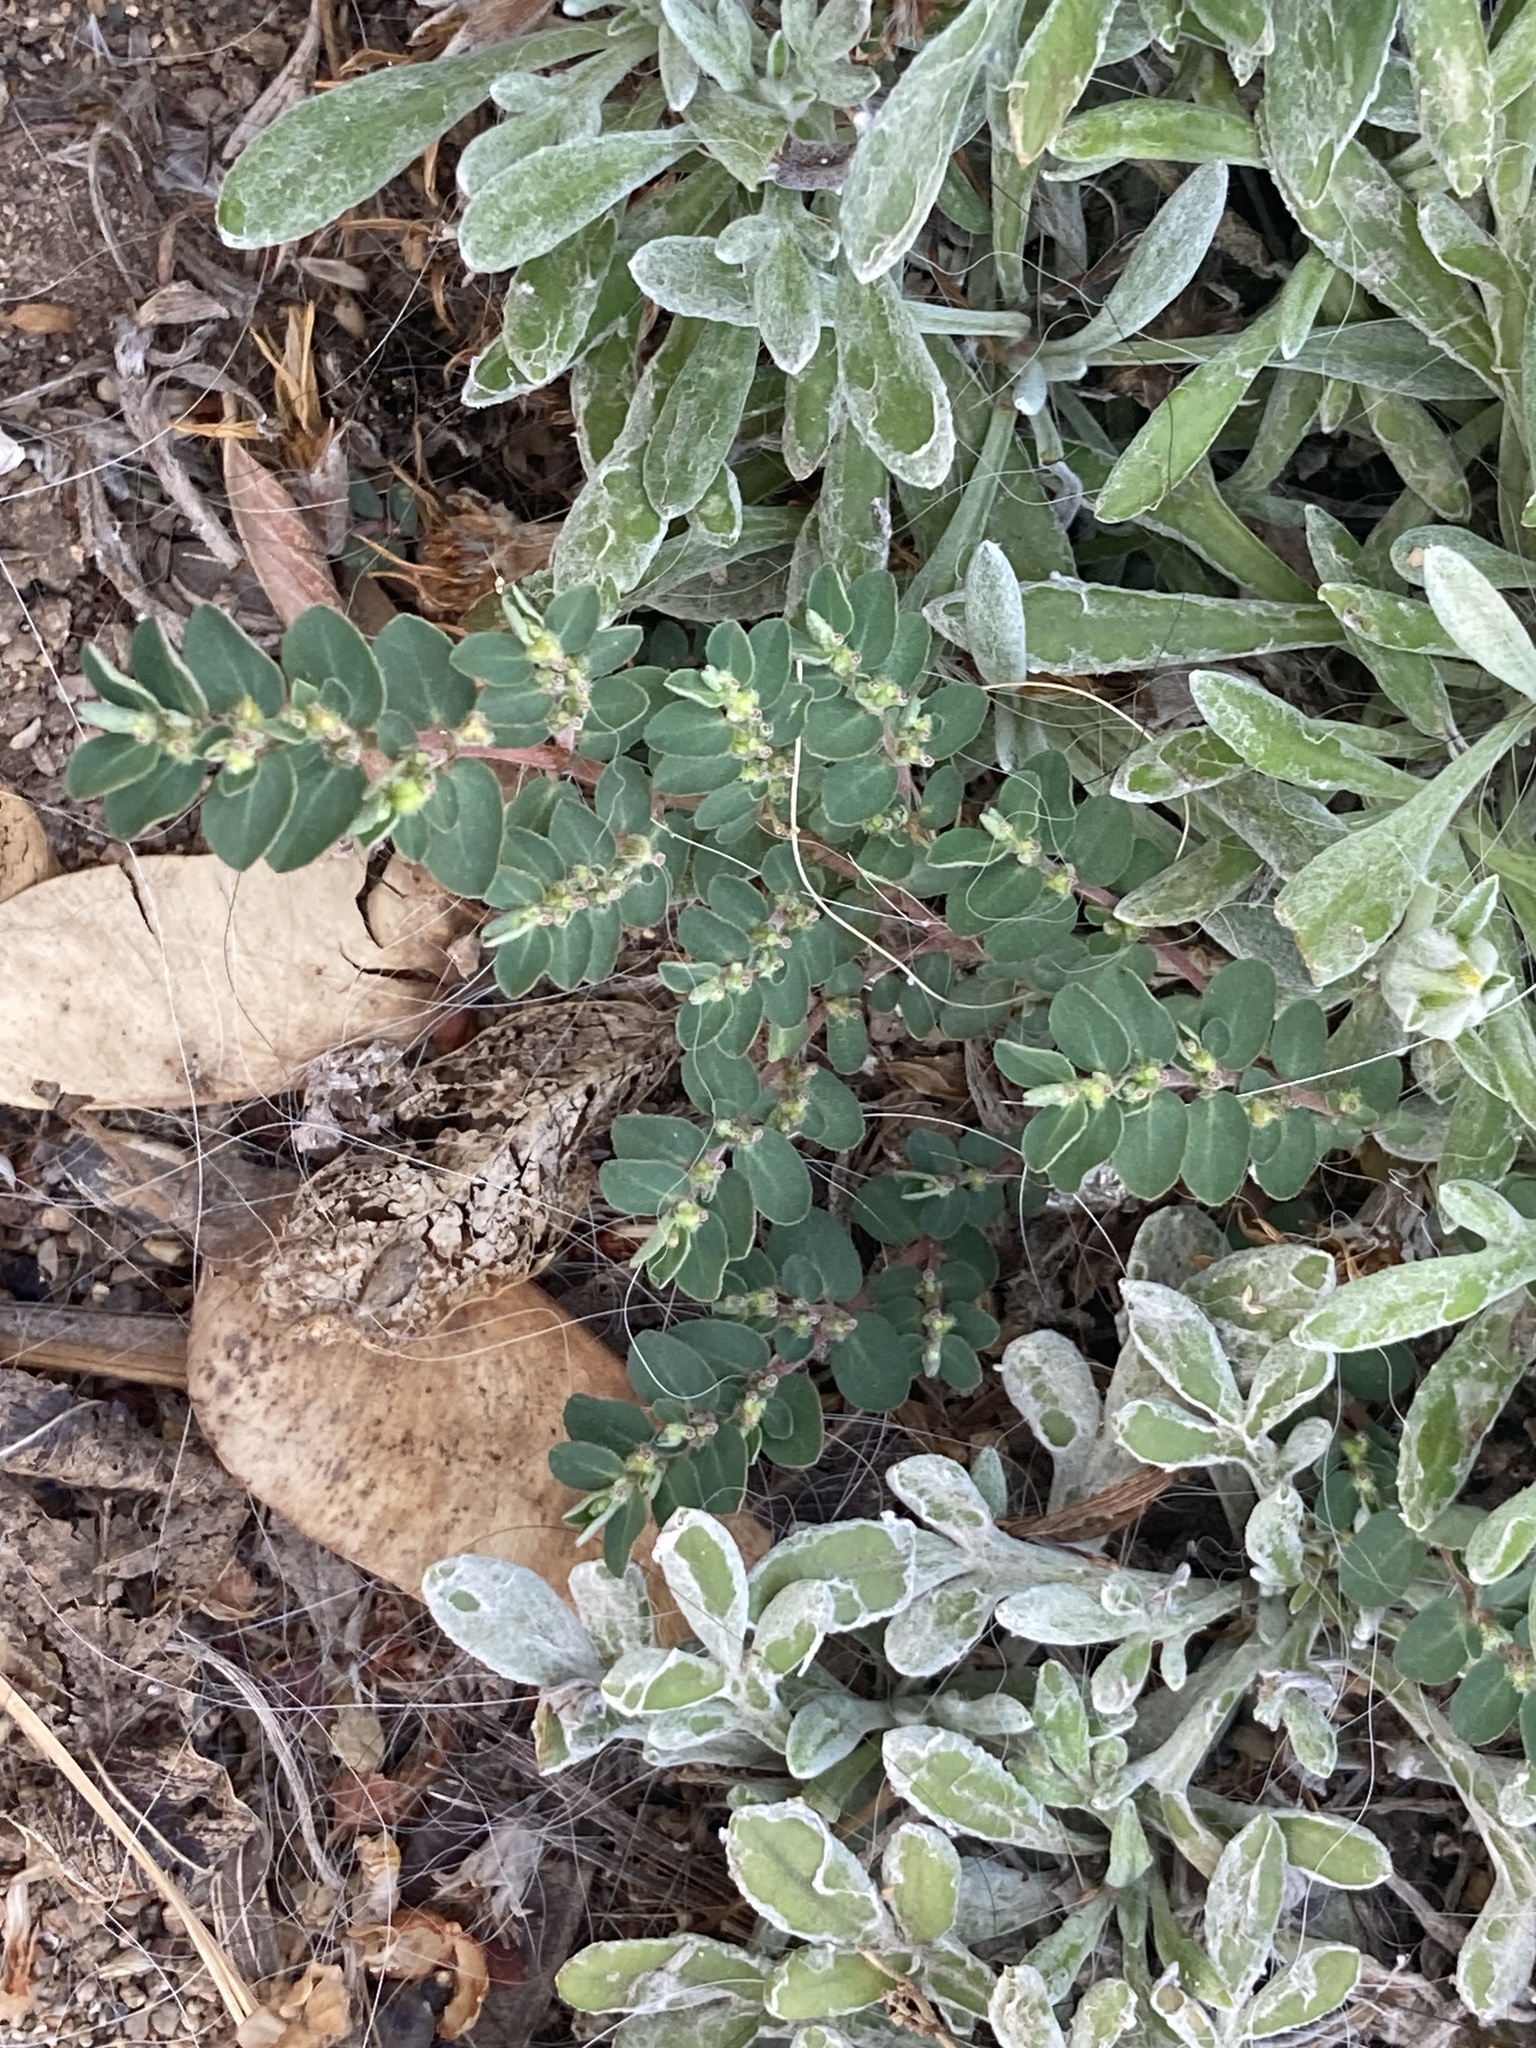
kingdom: Plantae
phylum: Tracheophyta
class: Magnoliopsida
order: Malpighiales
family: Euphorbiaceae
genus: Euphorbia
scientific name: Euphorbia prostrata
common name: Prostrate sandmat
